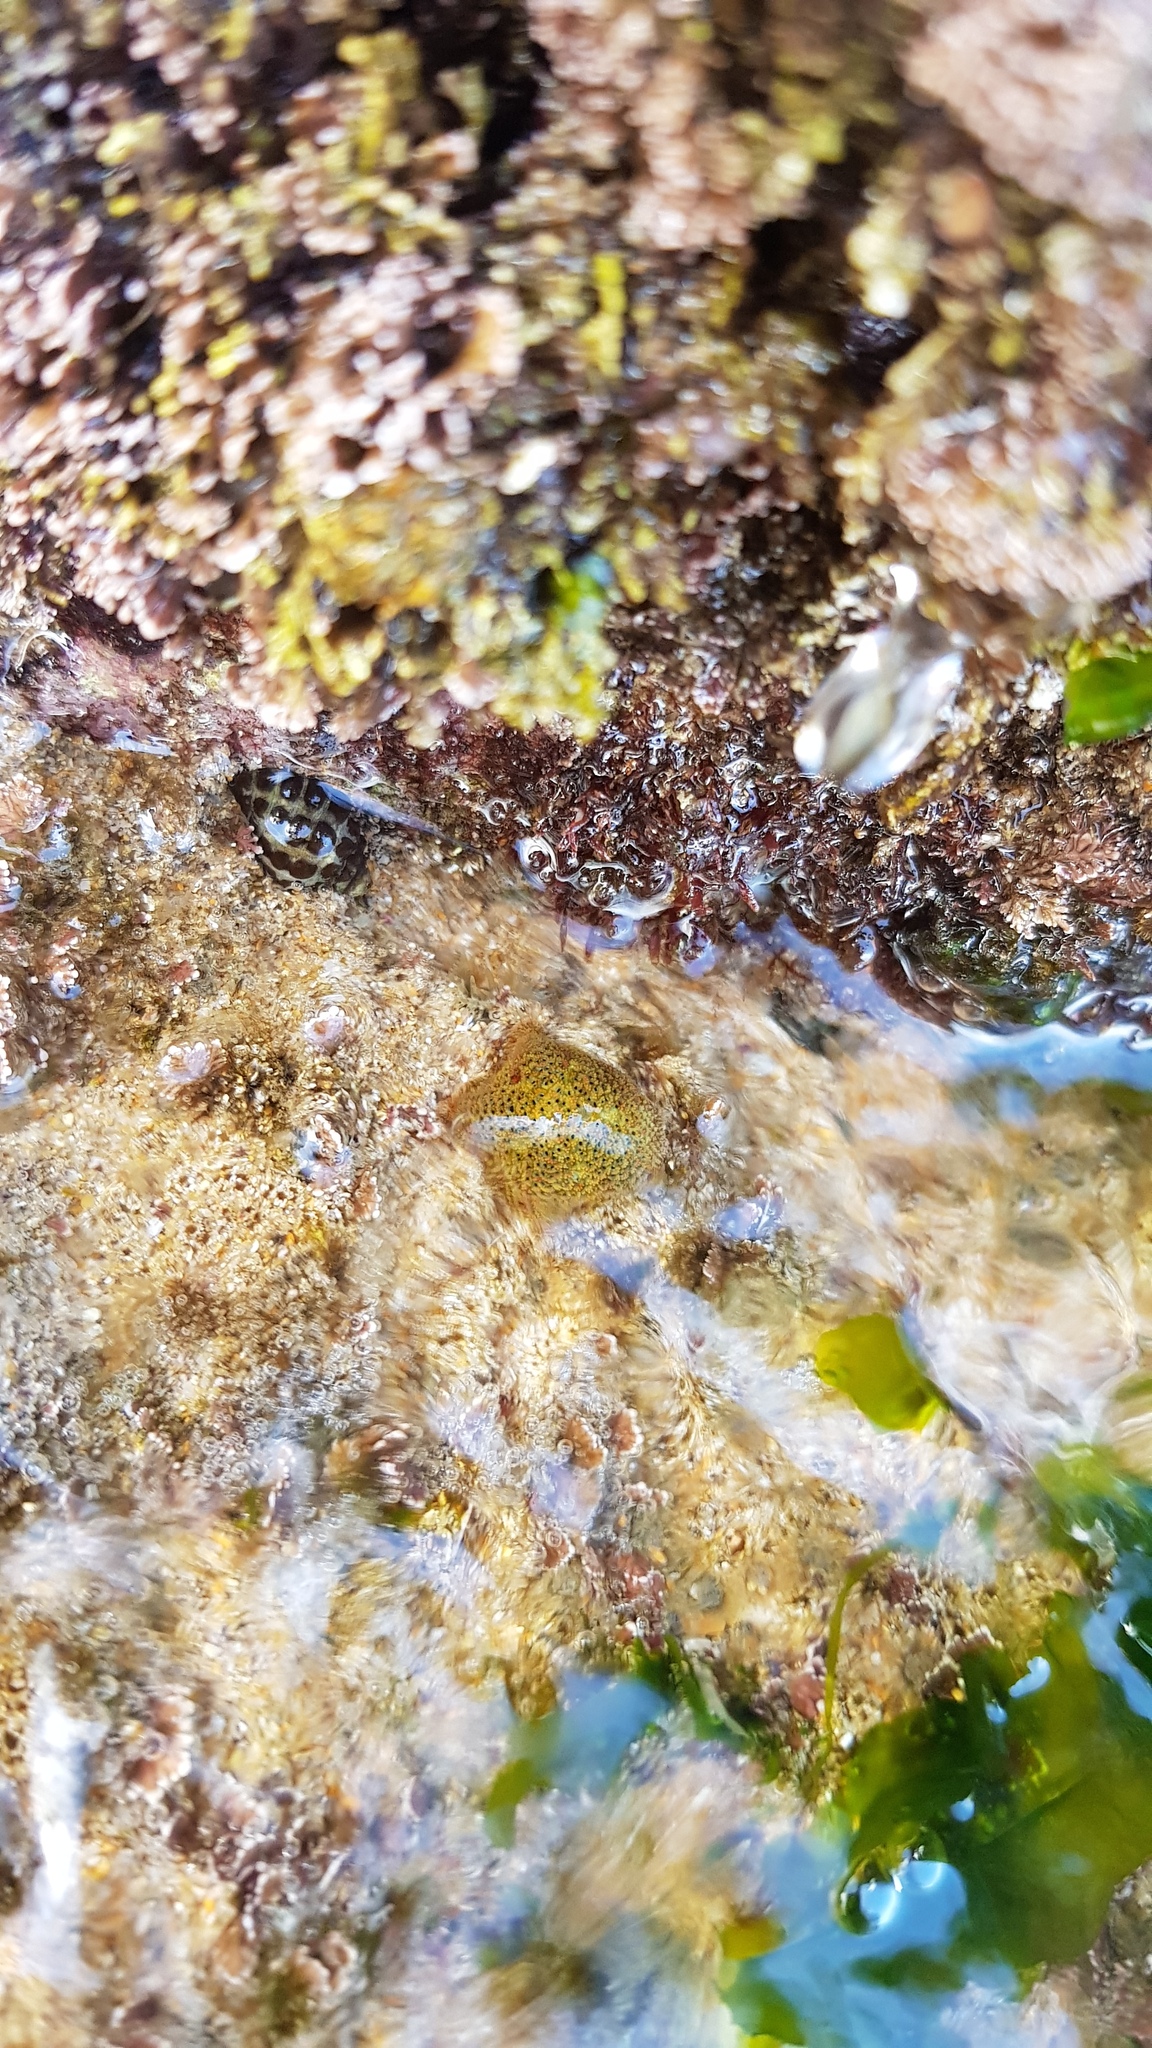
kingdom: Animalia
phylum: Echinodermata
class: Asteroidea
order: Valvatida
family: Asterinidae
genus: Parvulastra
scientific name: Parvulastra exigua
